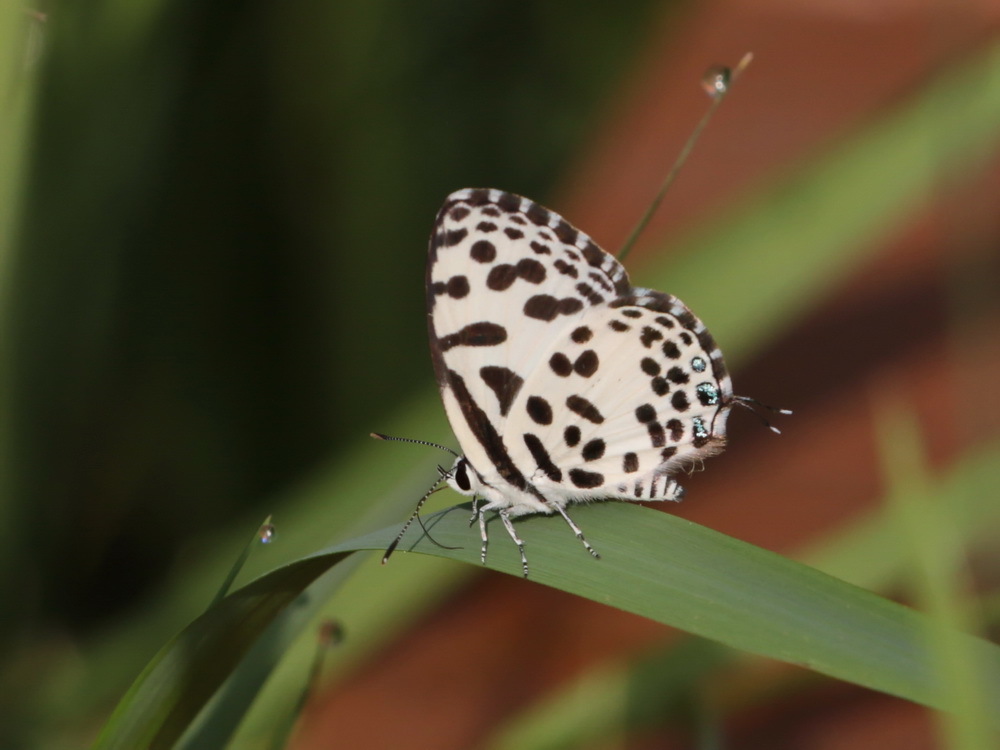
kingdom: Animalia
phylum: Arthropoda
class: Insecta
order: Lepidoptera
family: Lycaenidae
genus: Castalius
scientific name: Castalius rosimon
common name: Common pierrot
